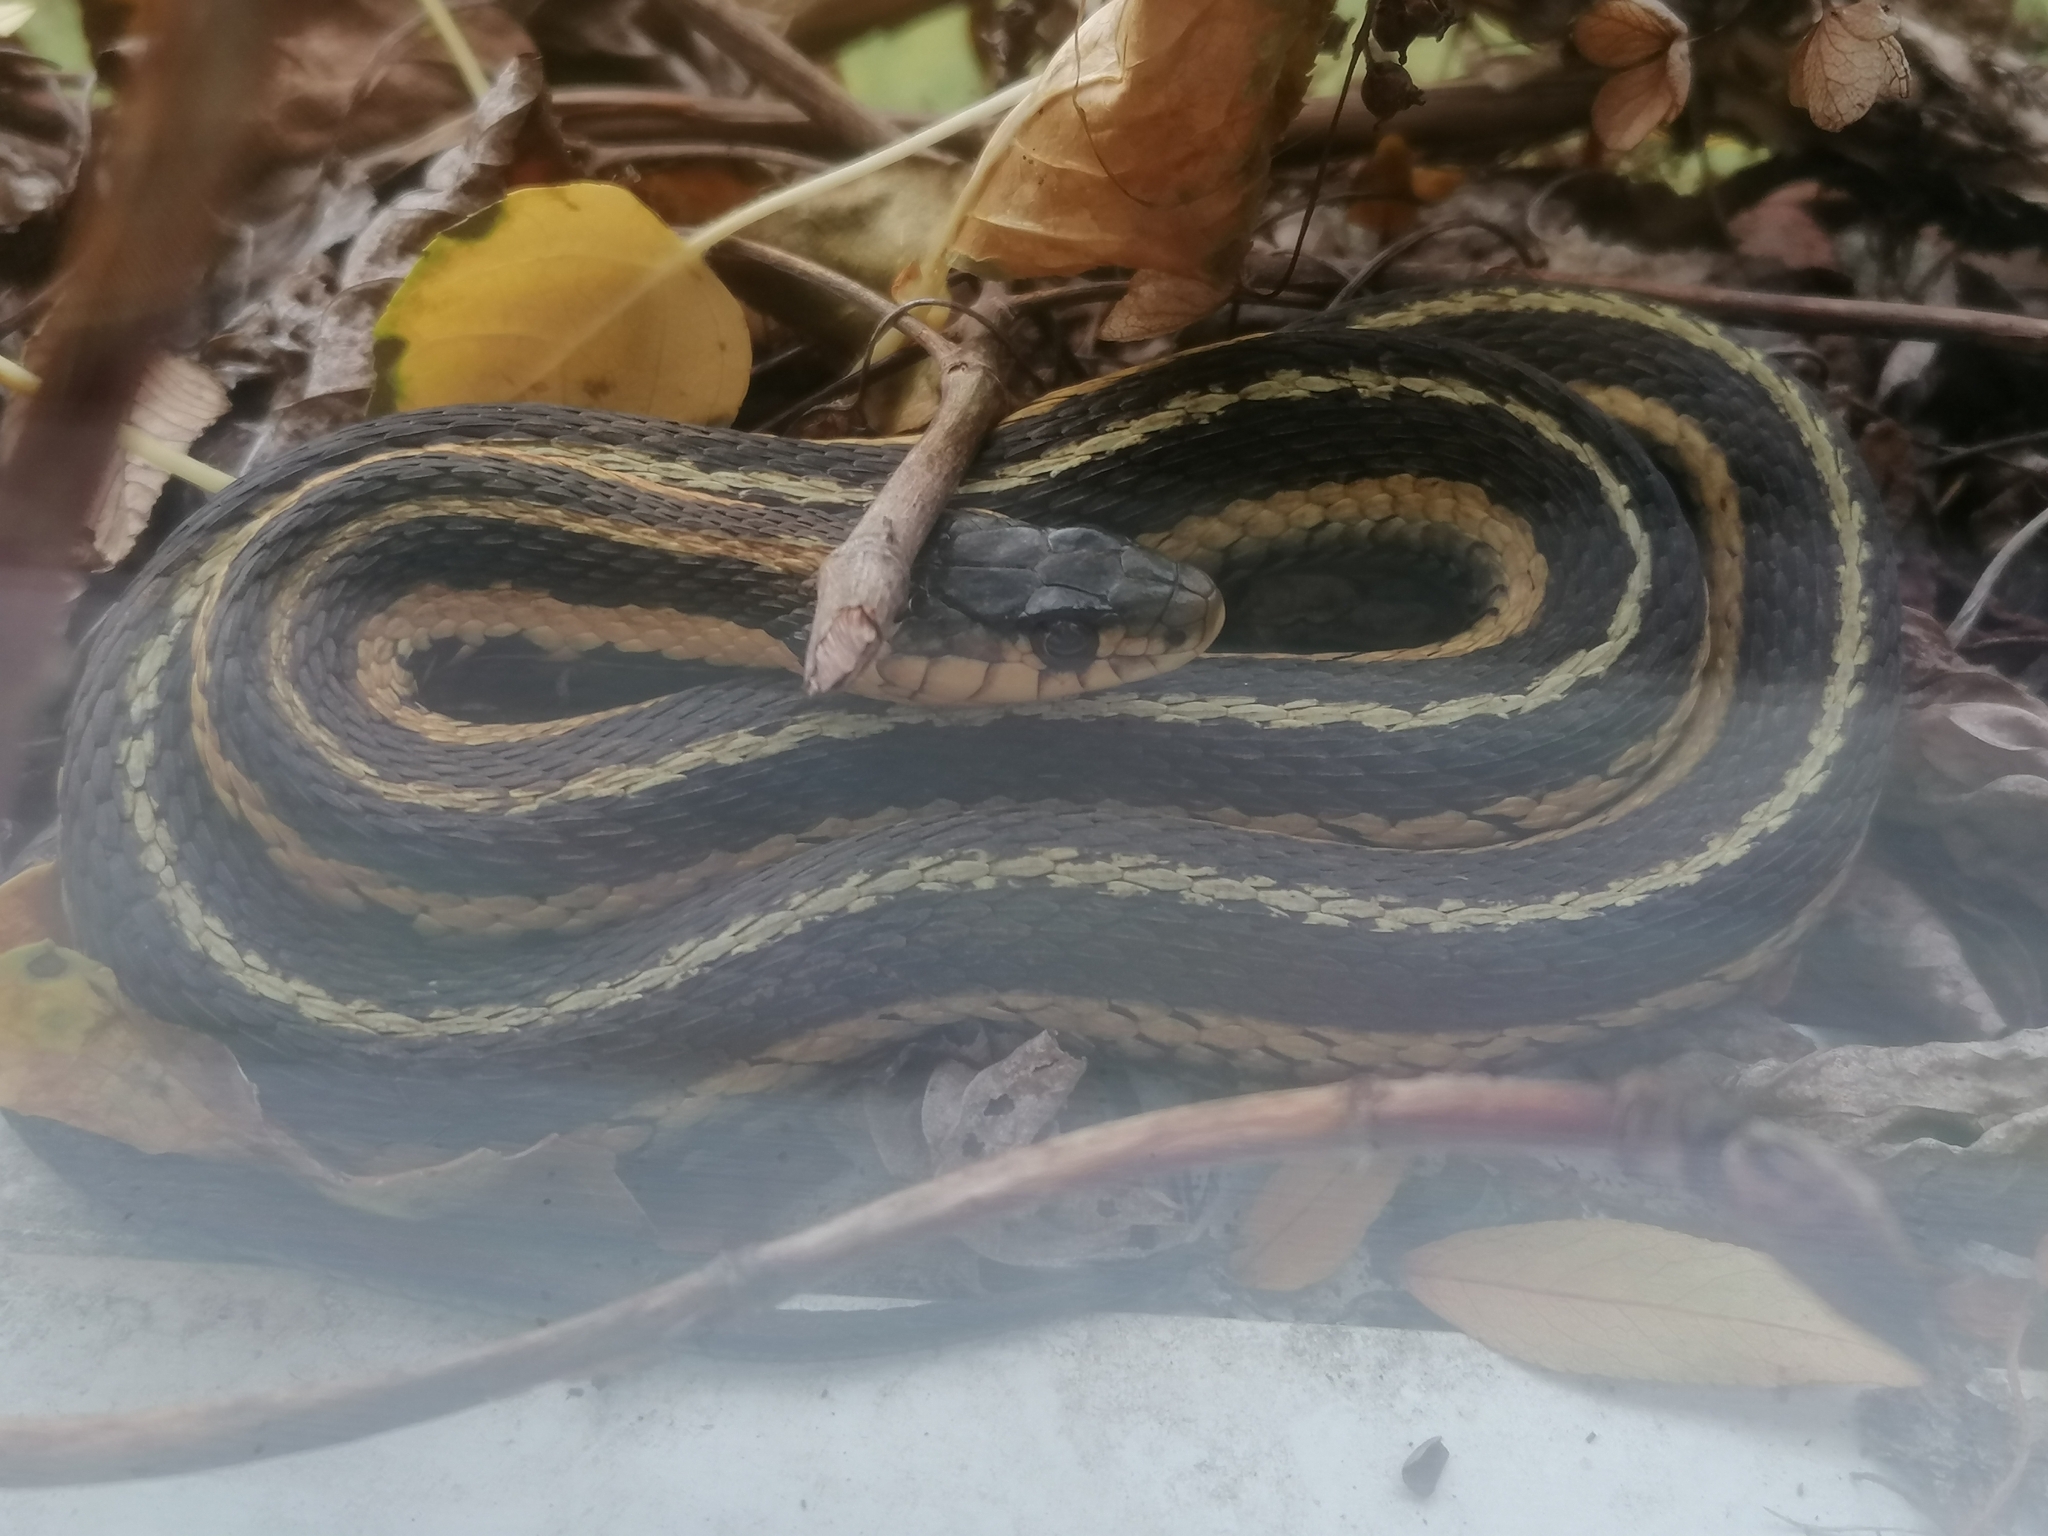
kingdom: Animalia
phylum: Chordata
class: Squamata
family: Colubridae
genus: Thamnophis
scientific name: Thamnophis sirtalis
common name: Common garter snake
